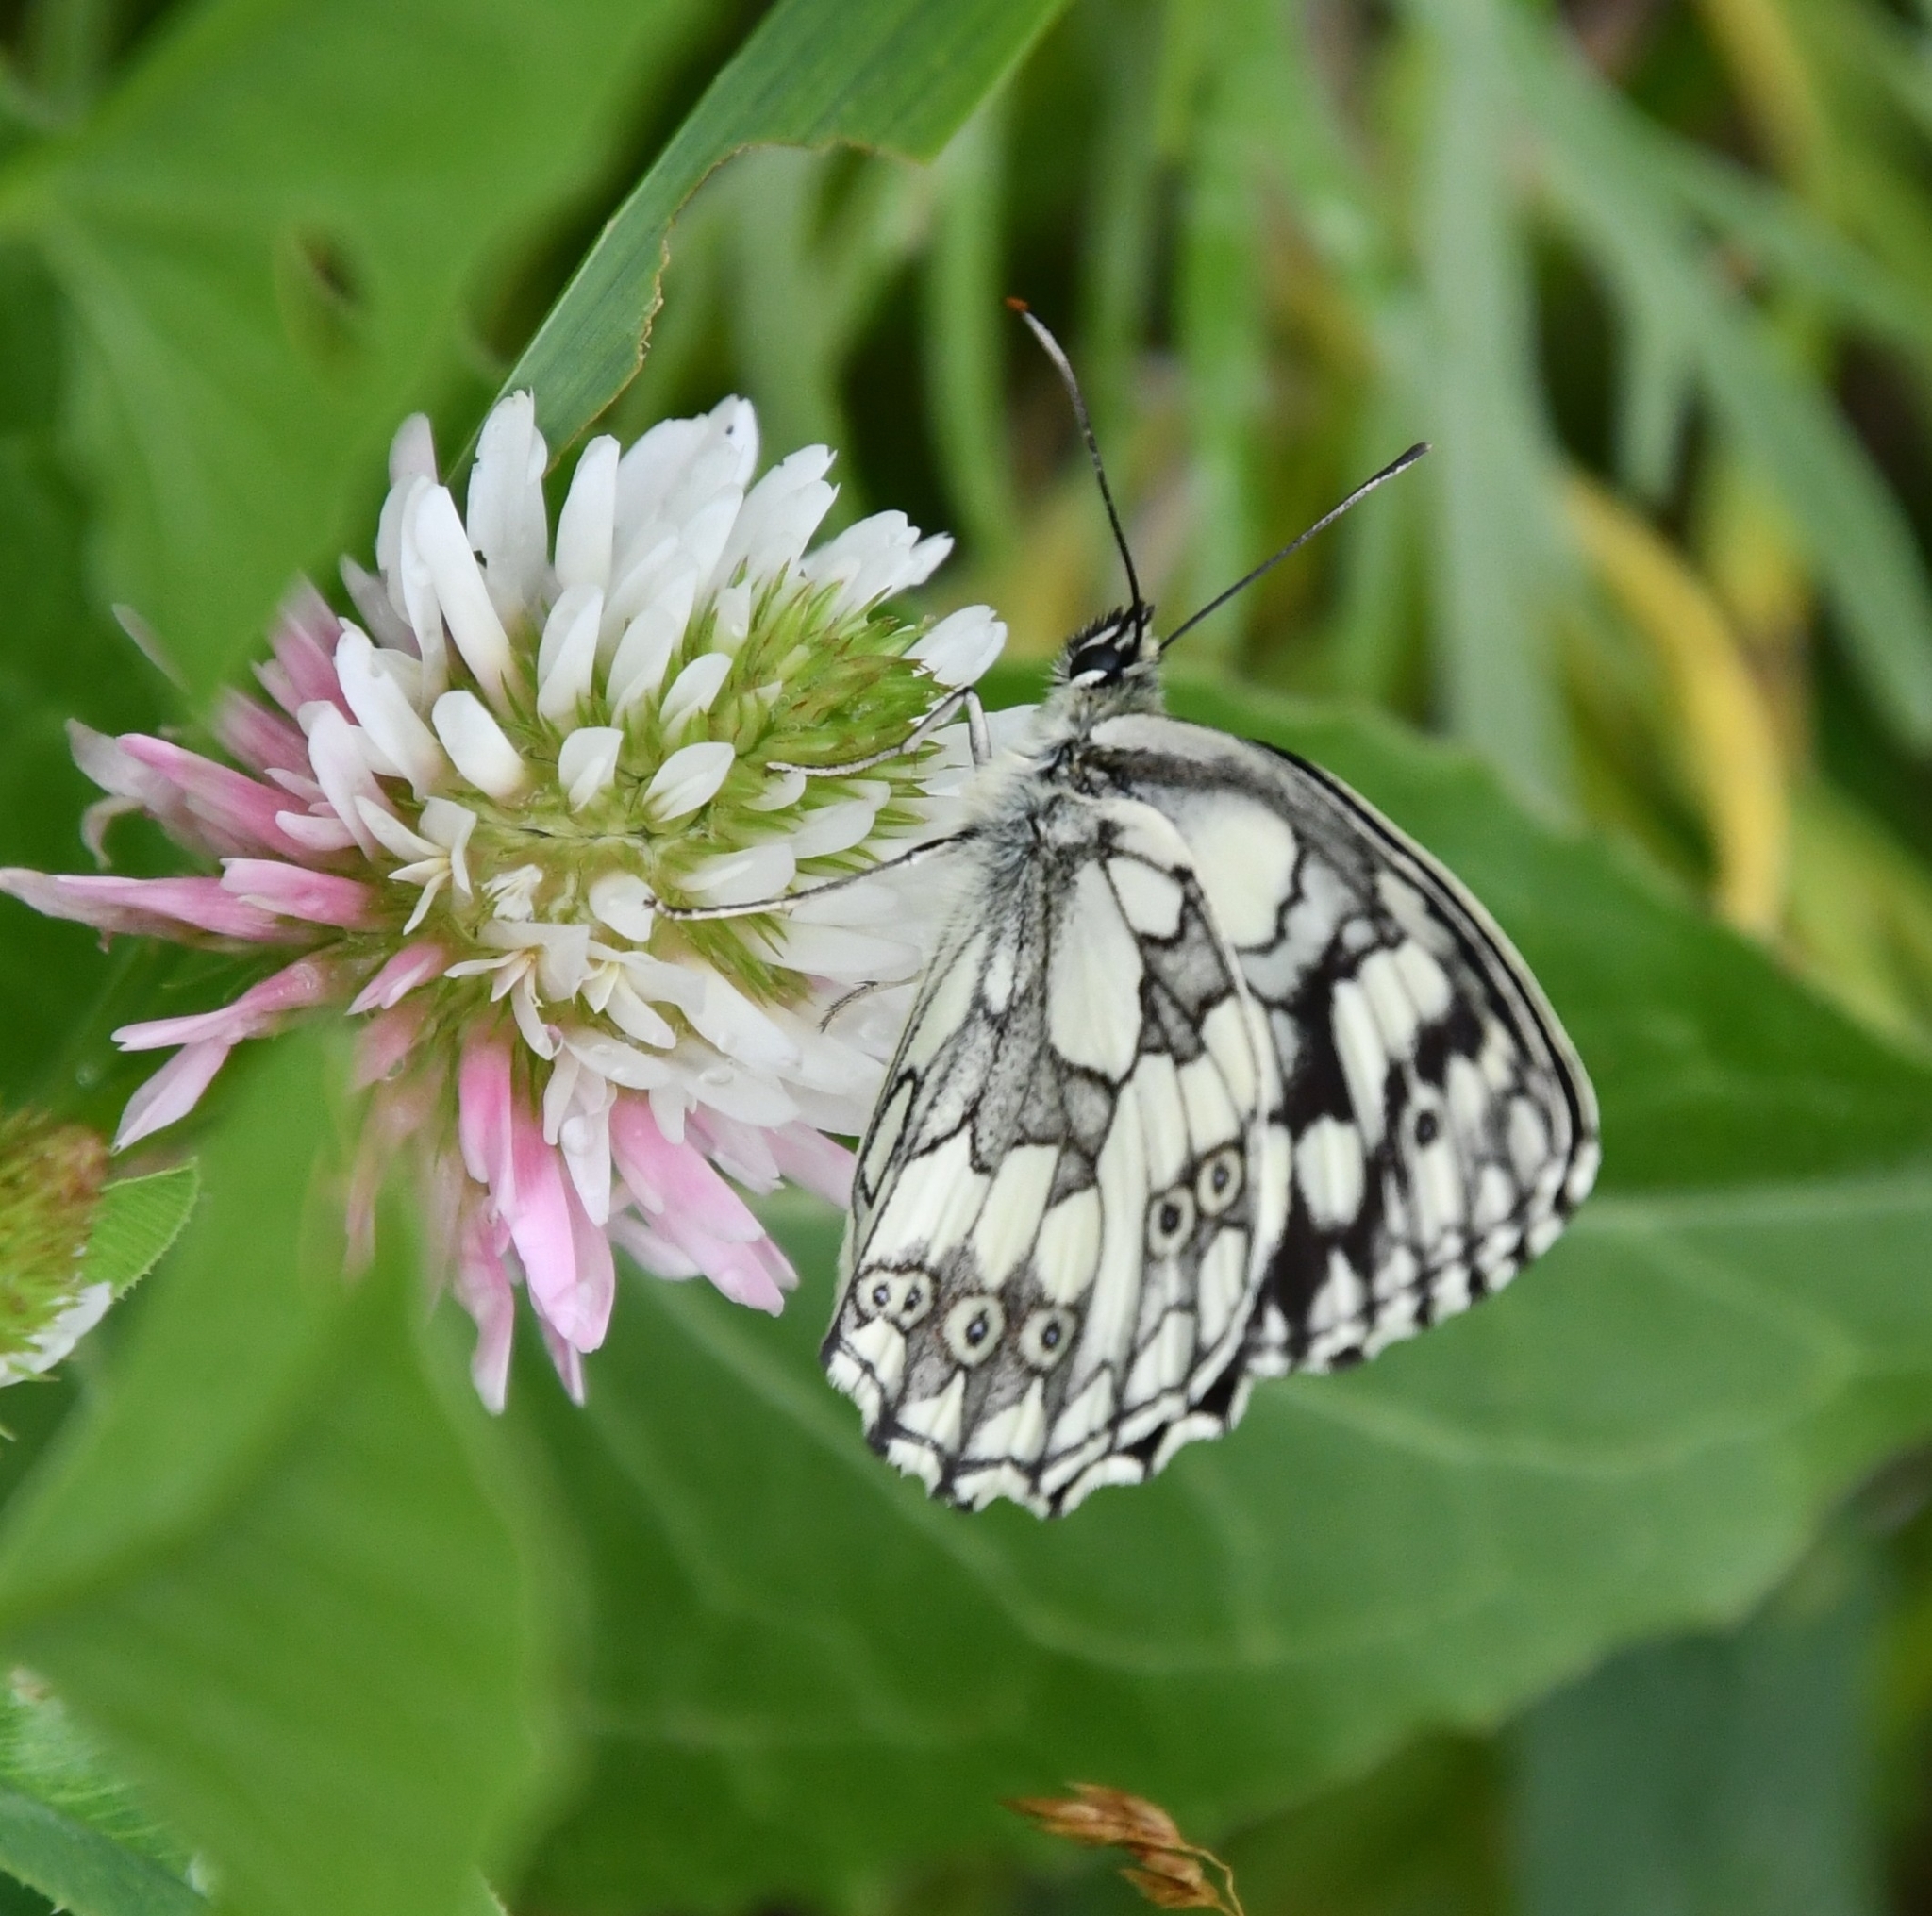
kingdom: Animalia
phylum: Arthropoda
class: Insecta
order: Lepidoptera
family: Nymphalidae
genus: Melanargia
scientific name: Melanargia galathea
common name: Marbled white
